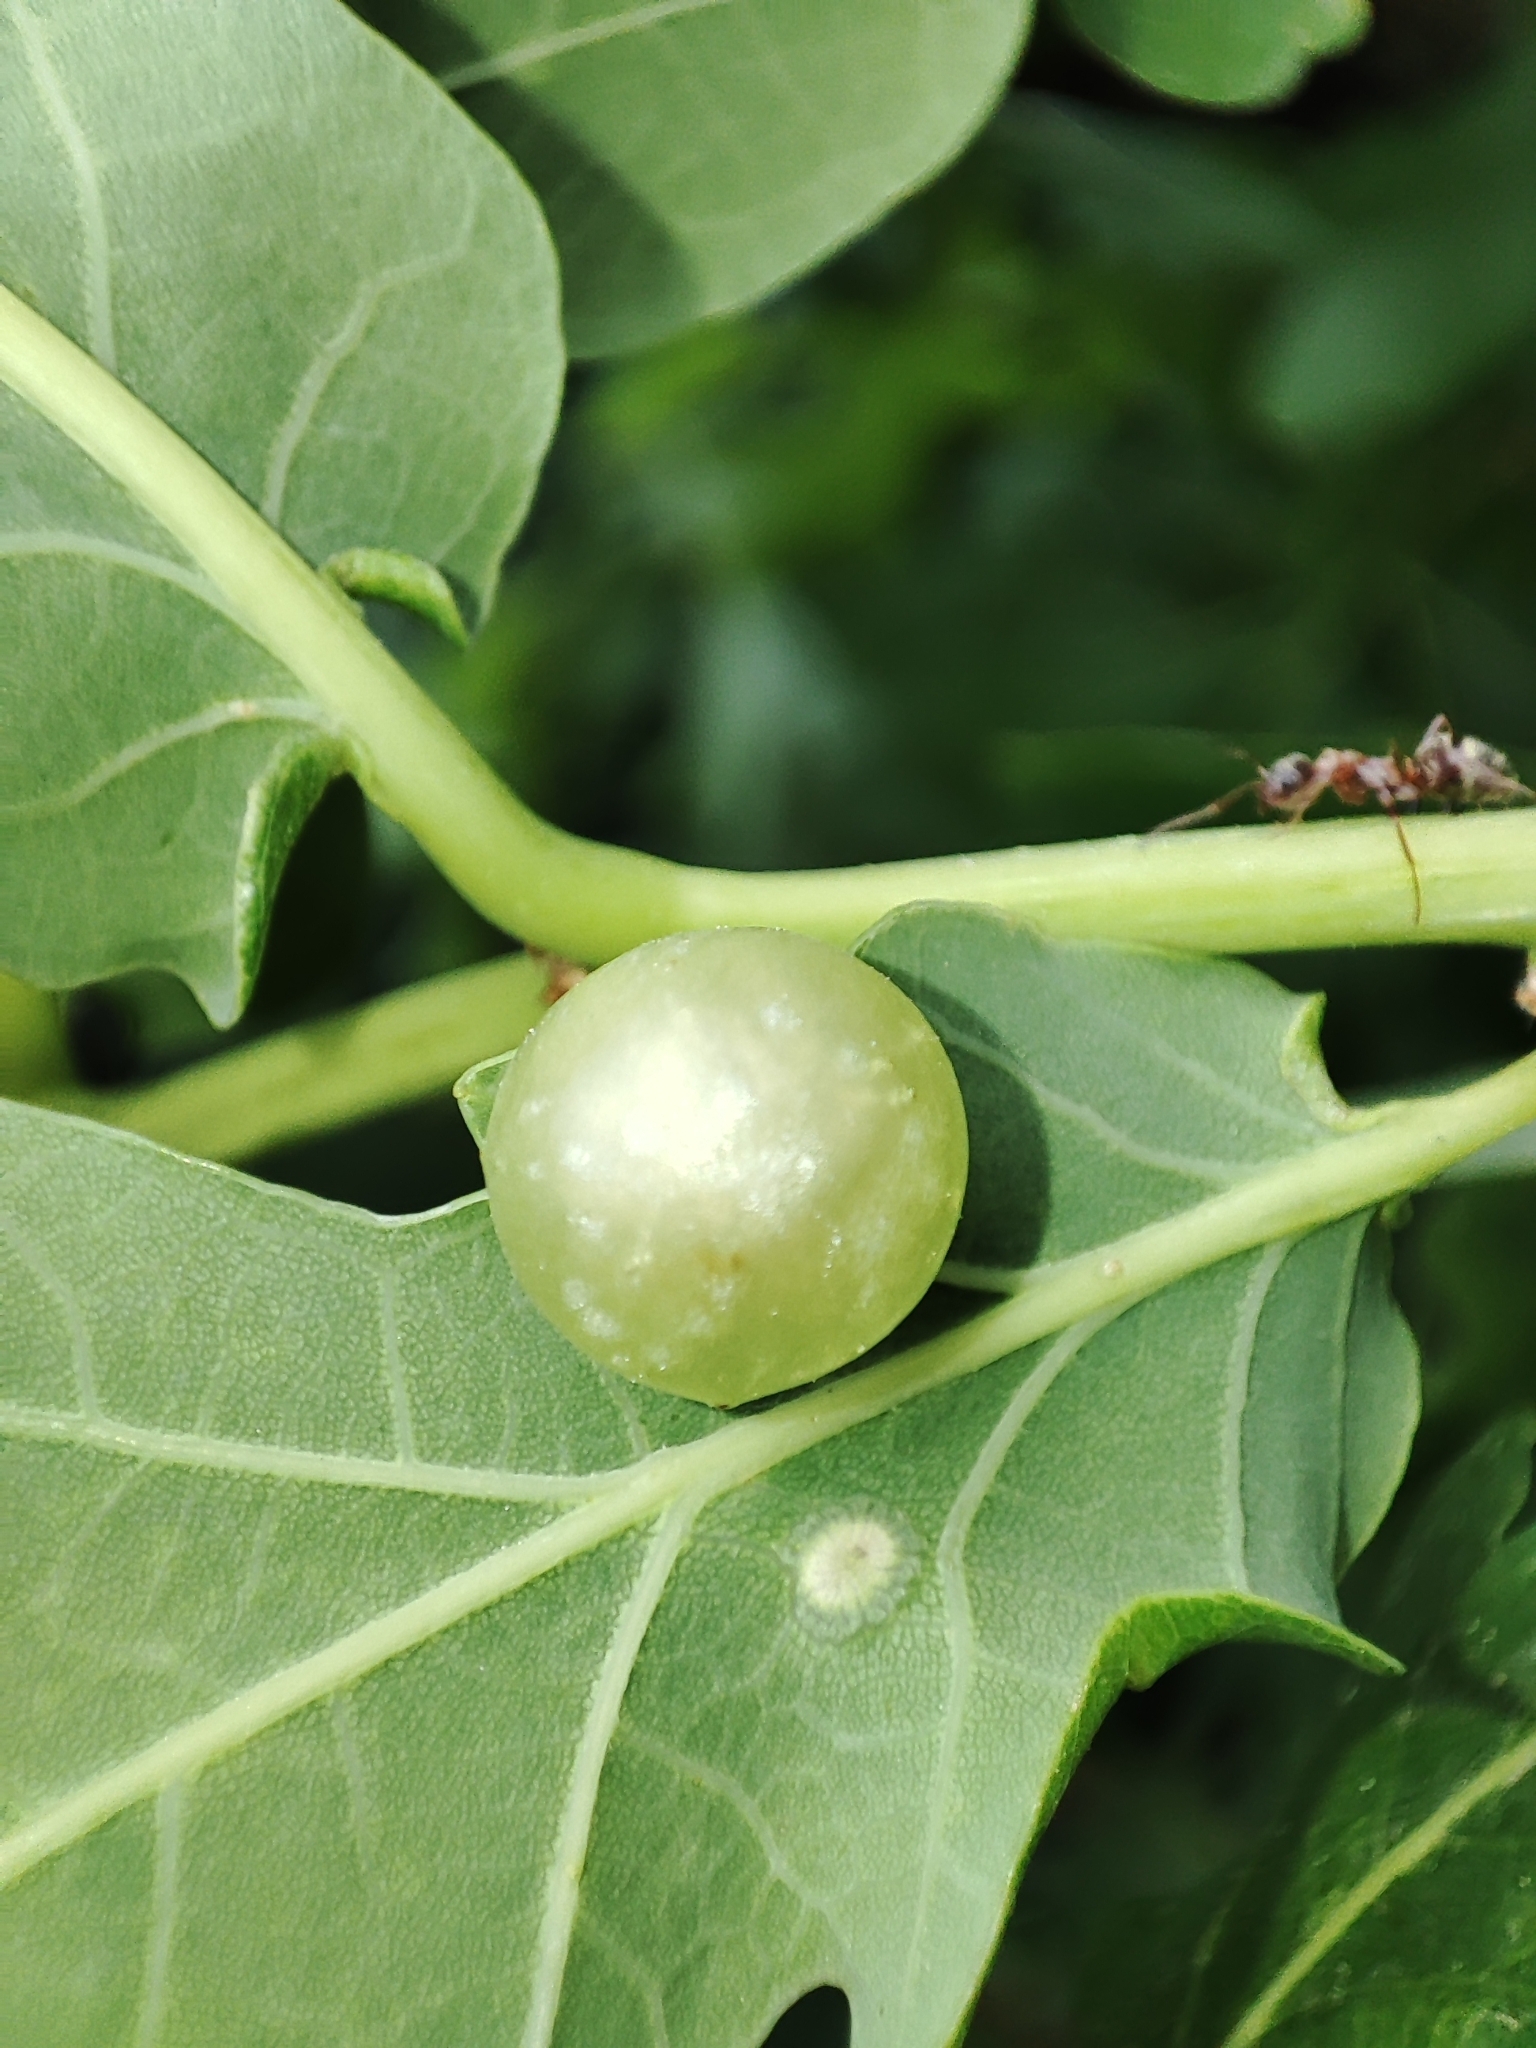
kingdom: Animalia
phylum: Arthropoda
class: Insecta
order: Hymenoptera
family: Cynipidae
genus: Neuroterus
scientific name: Neuroterus quercusbaccarum
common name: Common spangle gall
